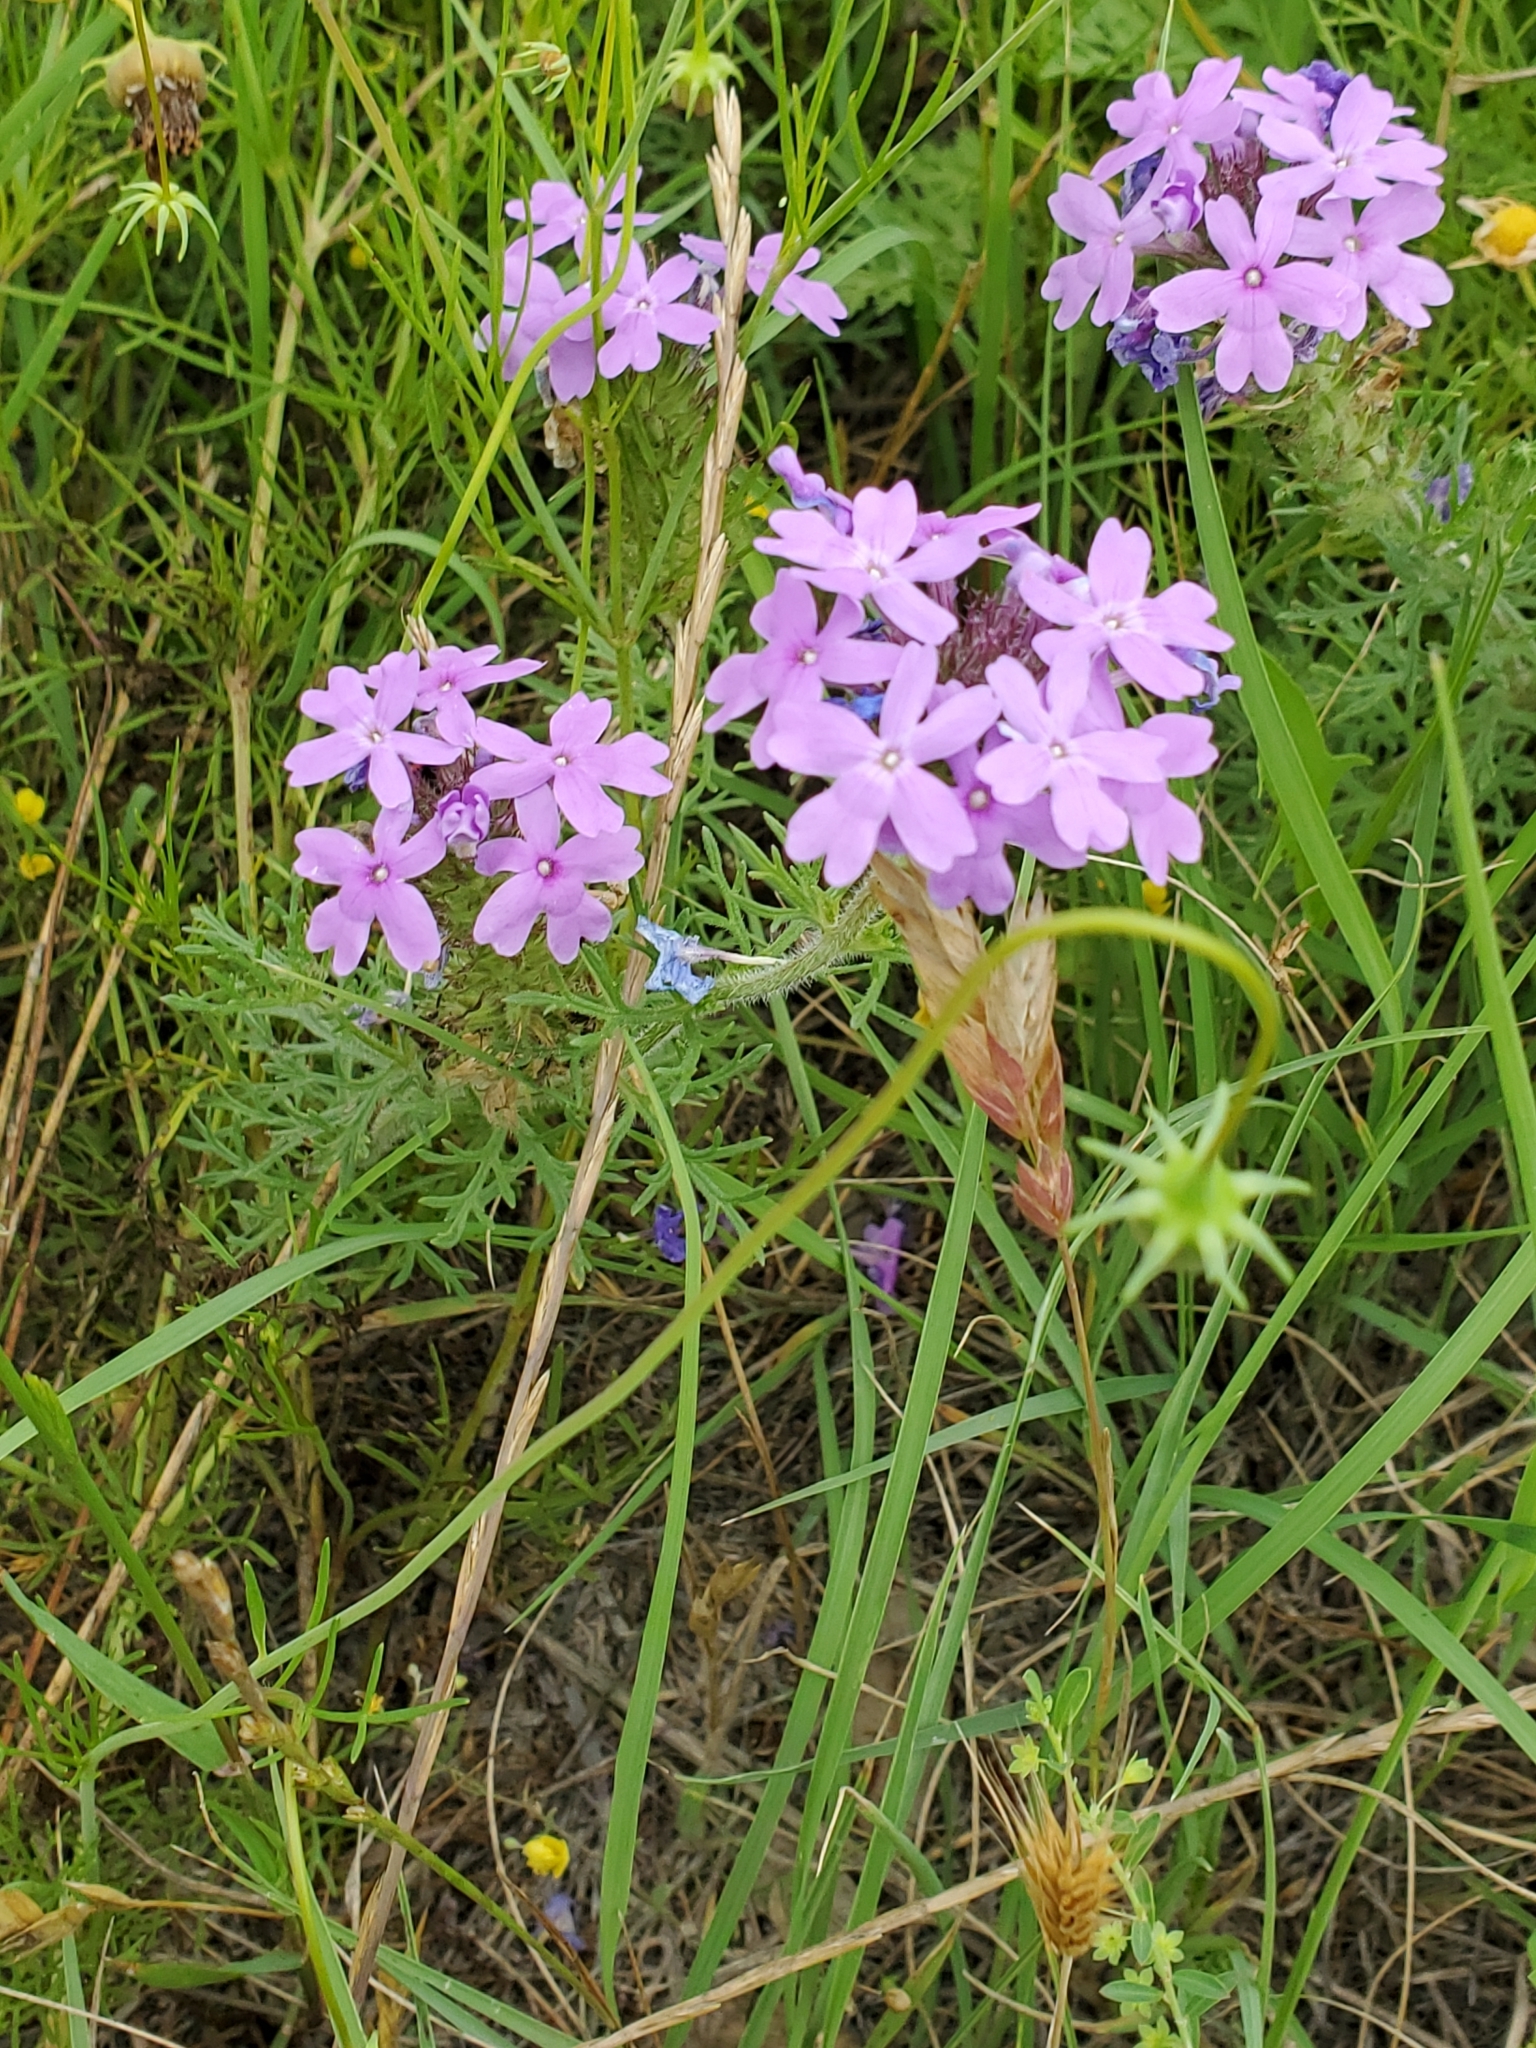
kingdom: Plantae
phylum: Tracheophyta
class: Magnoliopsida
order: Lamiales
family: Verbenaceae
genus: Verbena
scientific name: Verbena bipinnatifida
